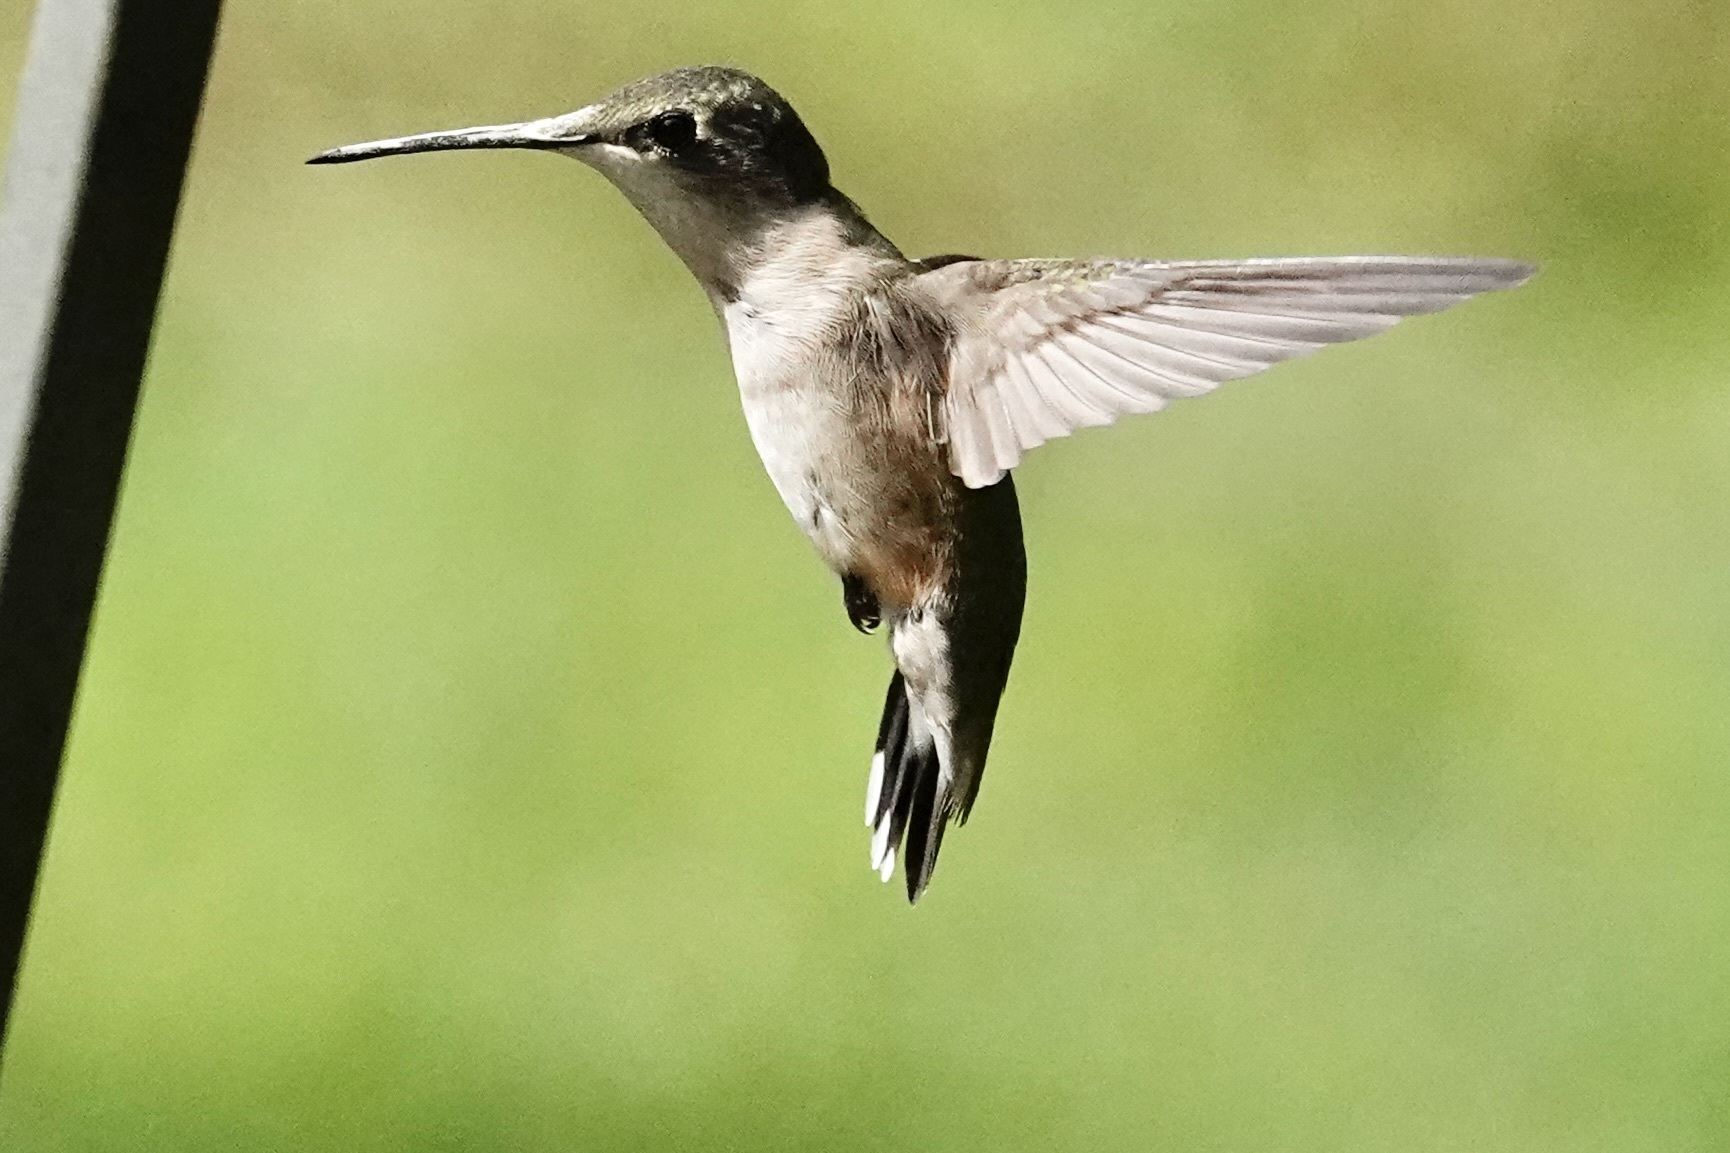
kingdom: Animalia
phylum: Chordata
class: Aves
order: Apodiformes
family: Trochilidae
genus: Archilochus
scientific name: Archilochus colubris
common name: Ruby-throated hummingbird
